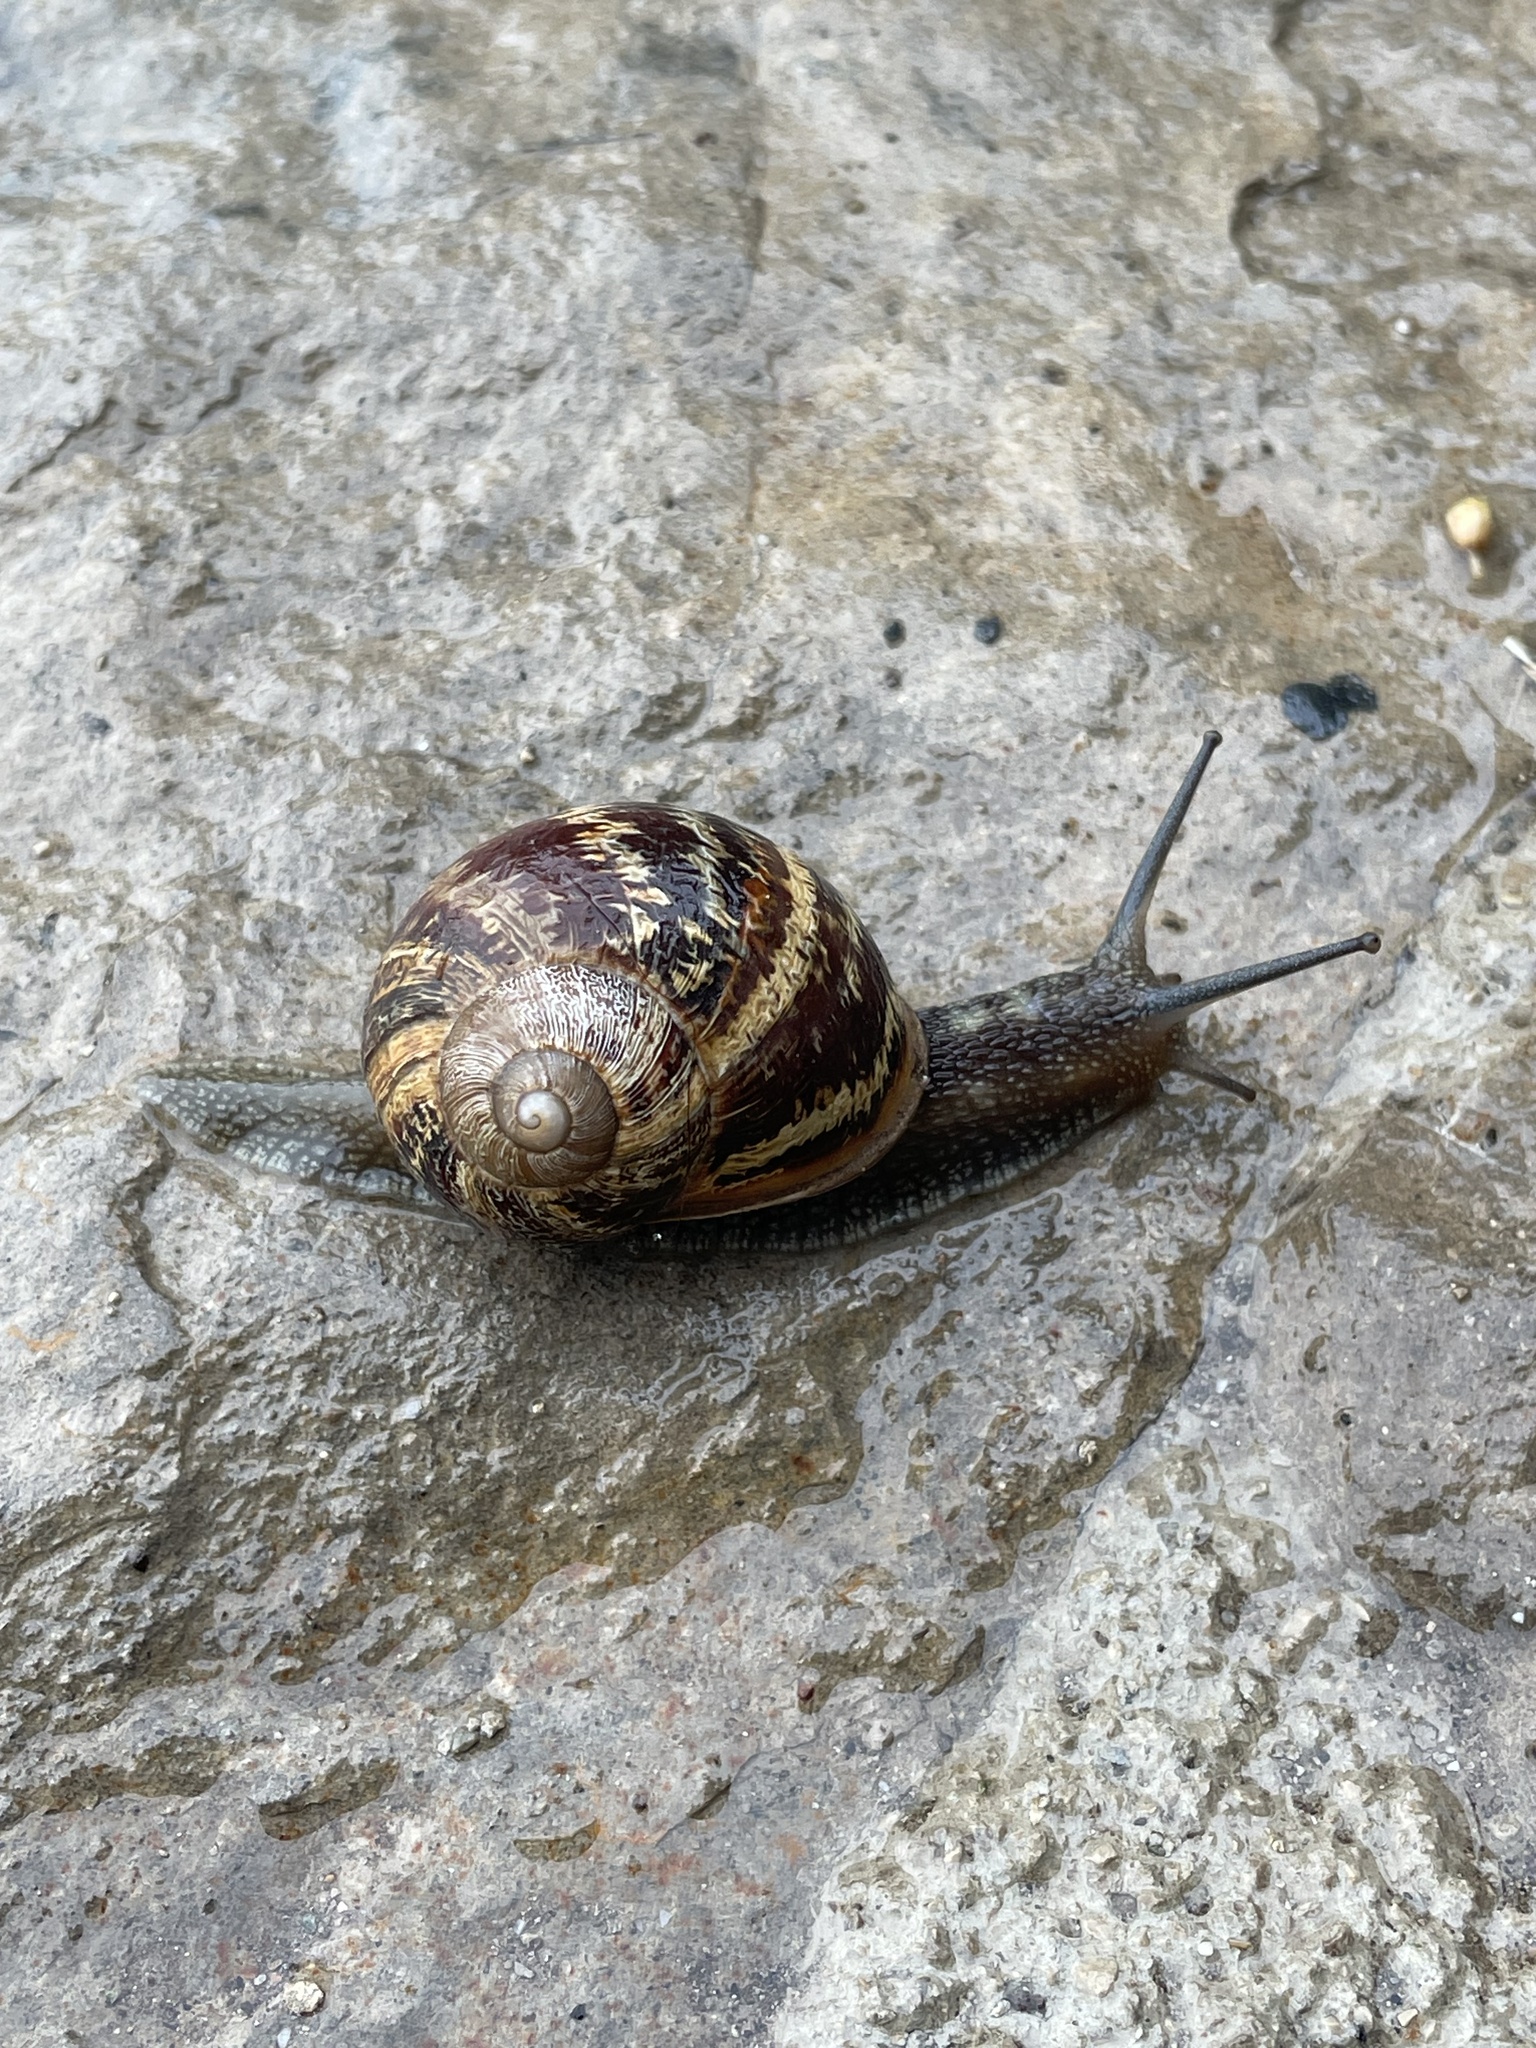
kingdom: Animalia
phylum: Mollusca
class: Gastropoda
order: Stylommatophora
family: Helicidae
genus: Cornu
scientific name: Cornu aspersum
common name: Brown garden snail
